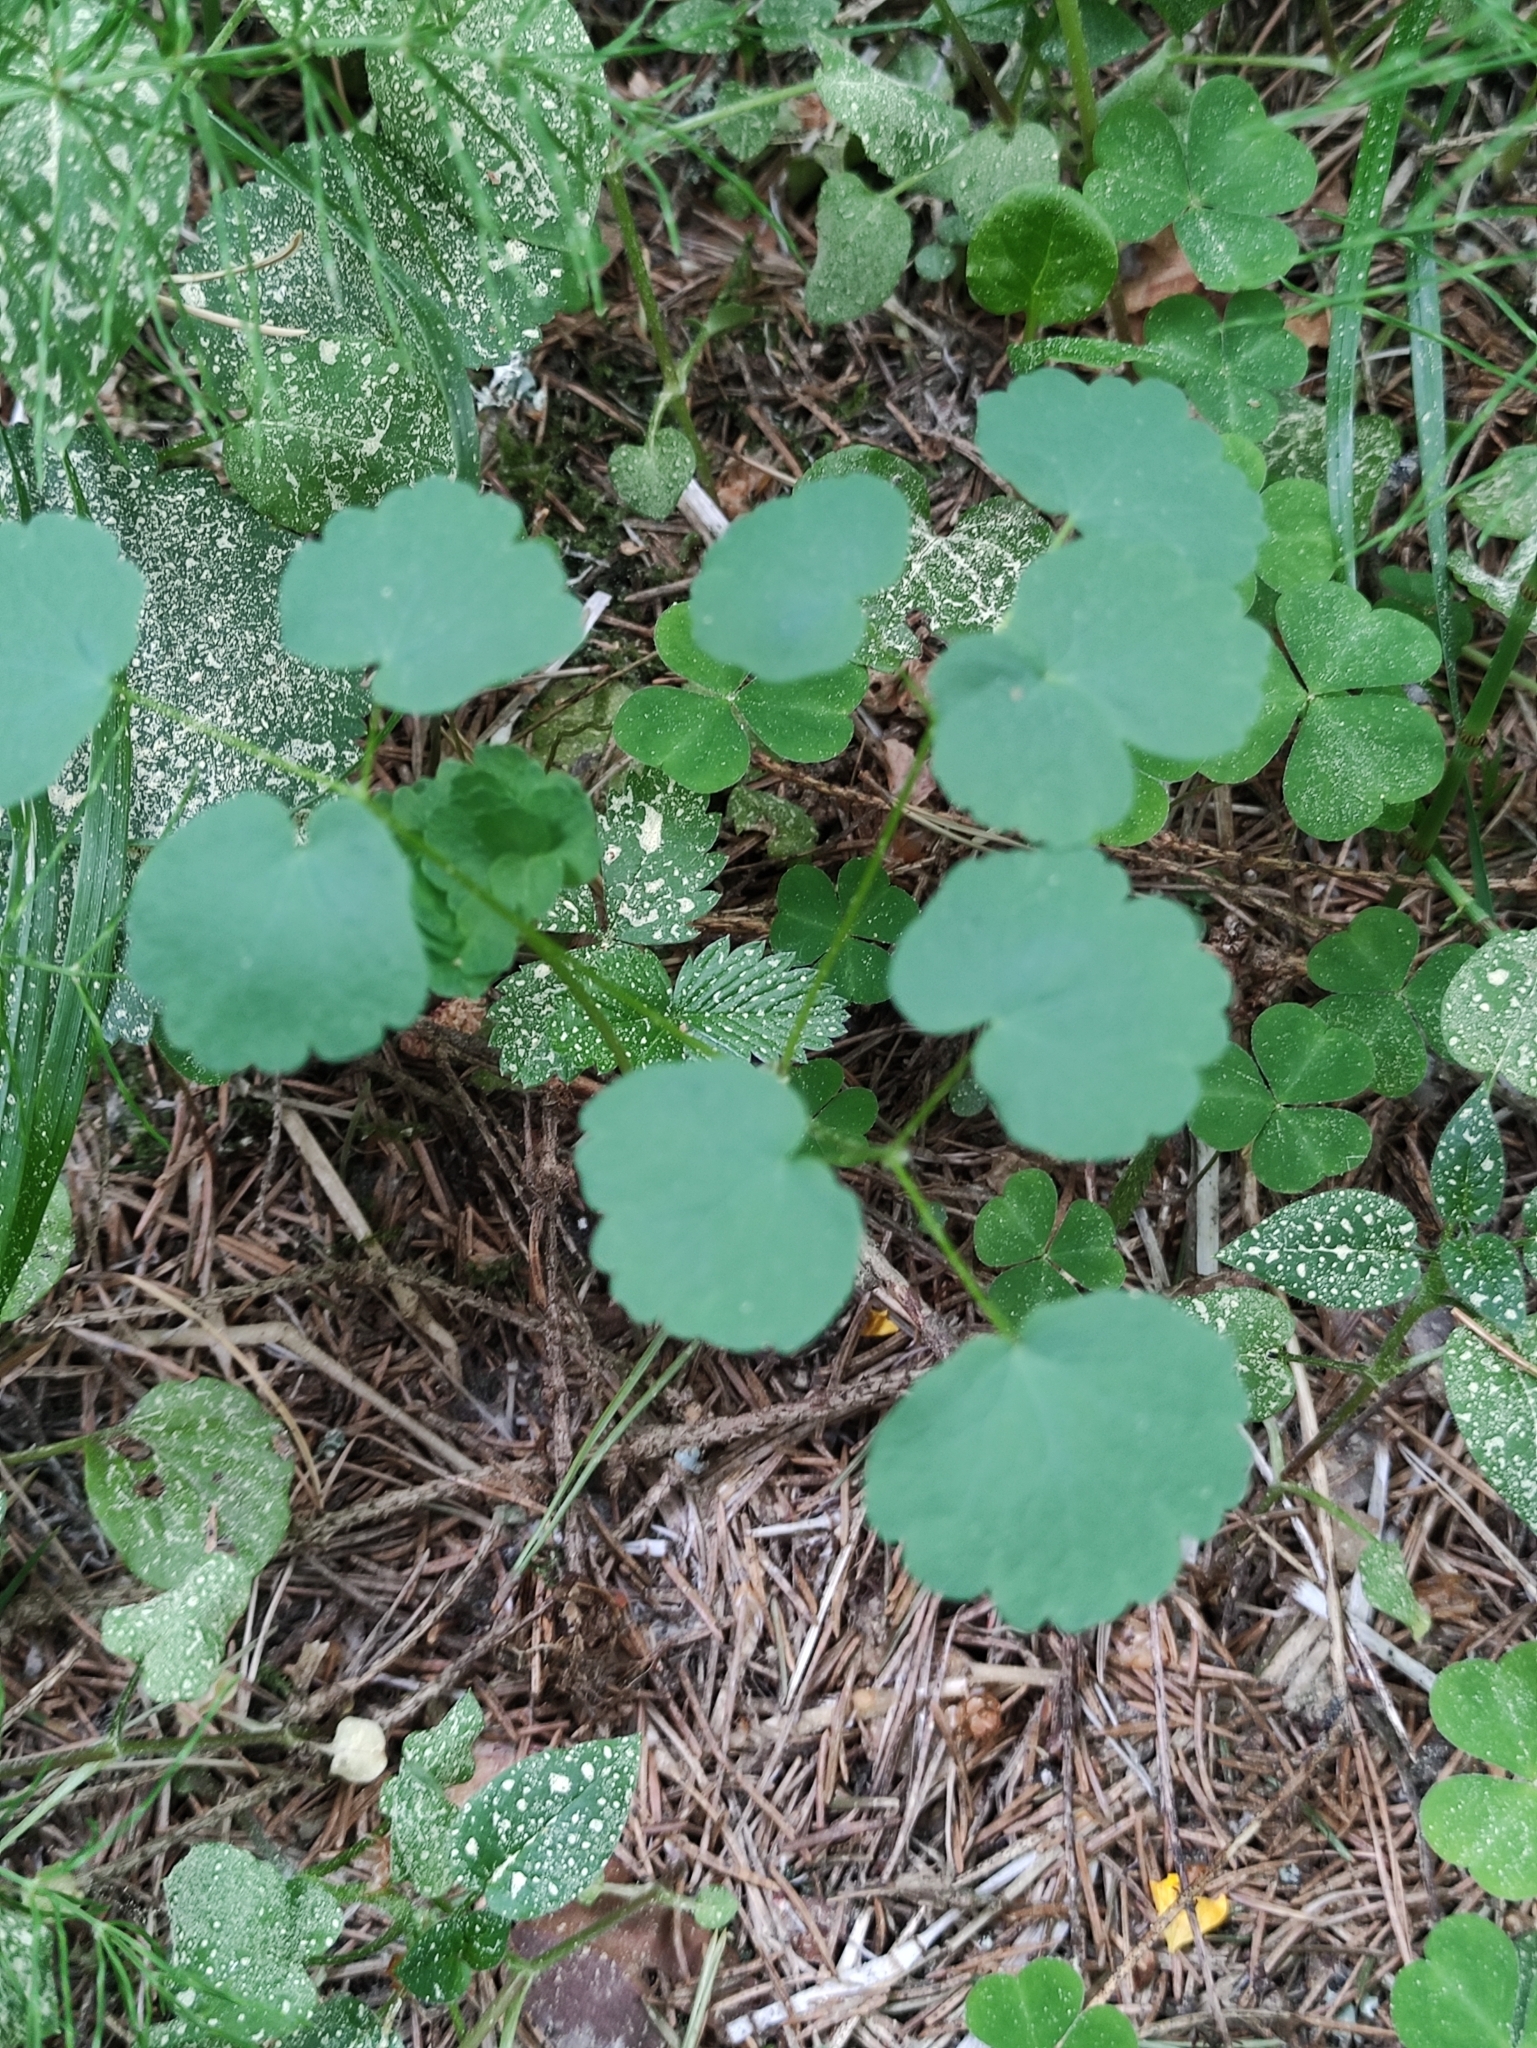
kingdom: Plantae
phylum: Tracheophyta
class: Magnoliopsida
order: Ranunculales
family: Ranunculaceae
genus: Thalictrum
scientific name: Thalictrum aquilegiifolium
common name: French meadow-rue
